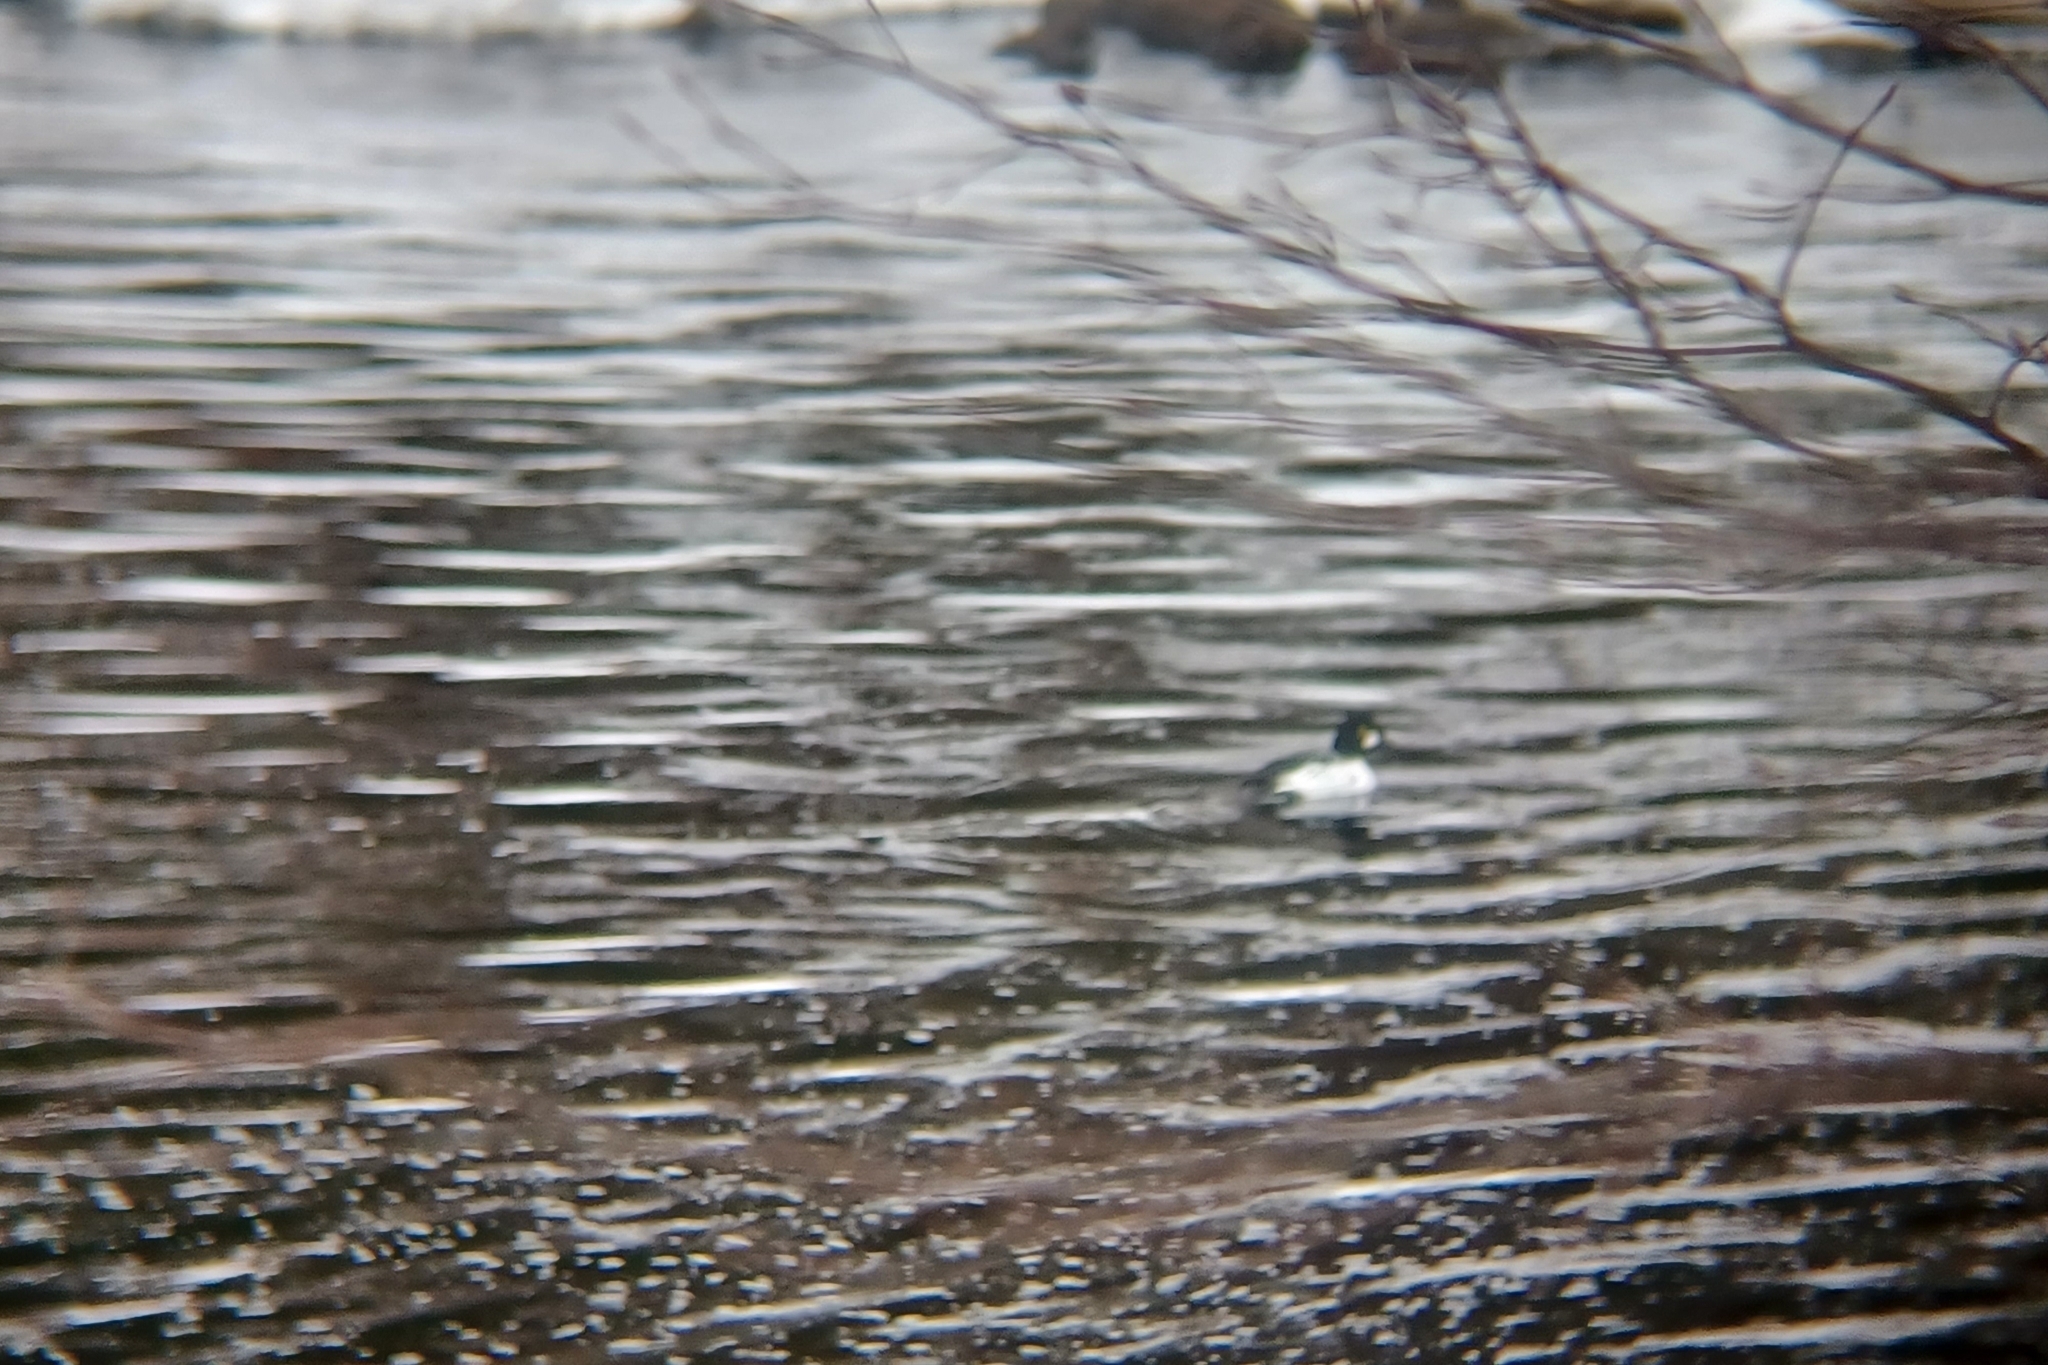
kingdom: Animalia
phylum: Chordata
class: Aves
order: Anseriformes
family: Anatidae
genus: Bucephala
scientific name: Bucephala clangula
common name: Common goldeneye
